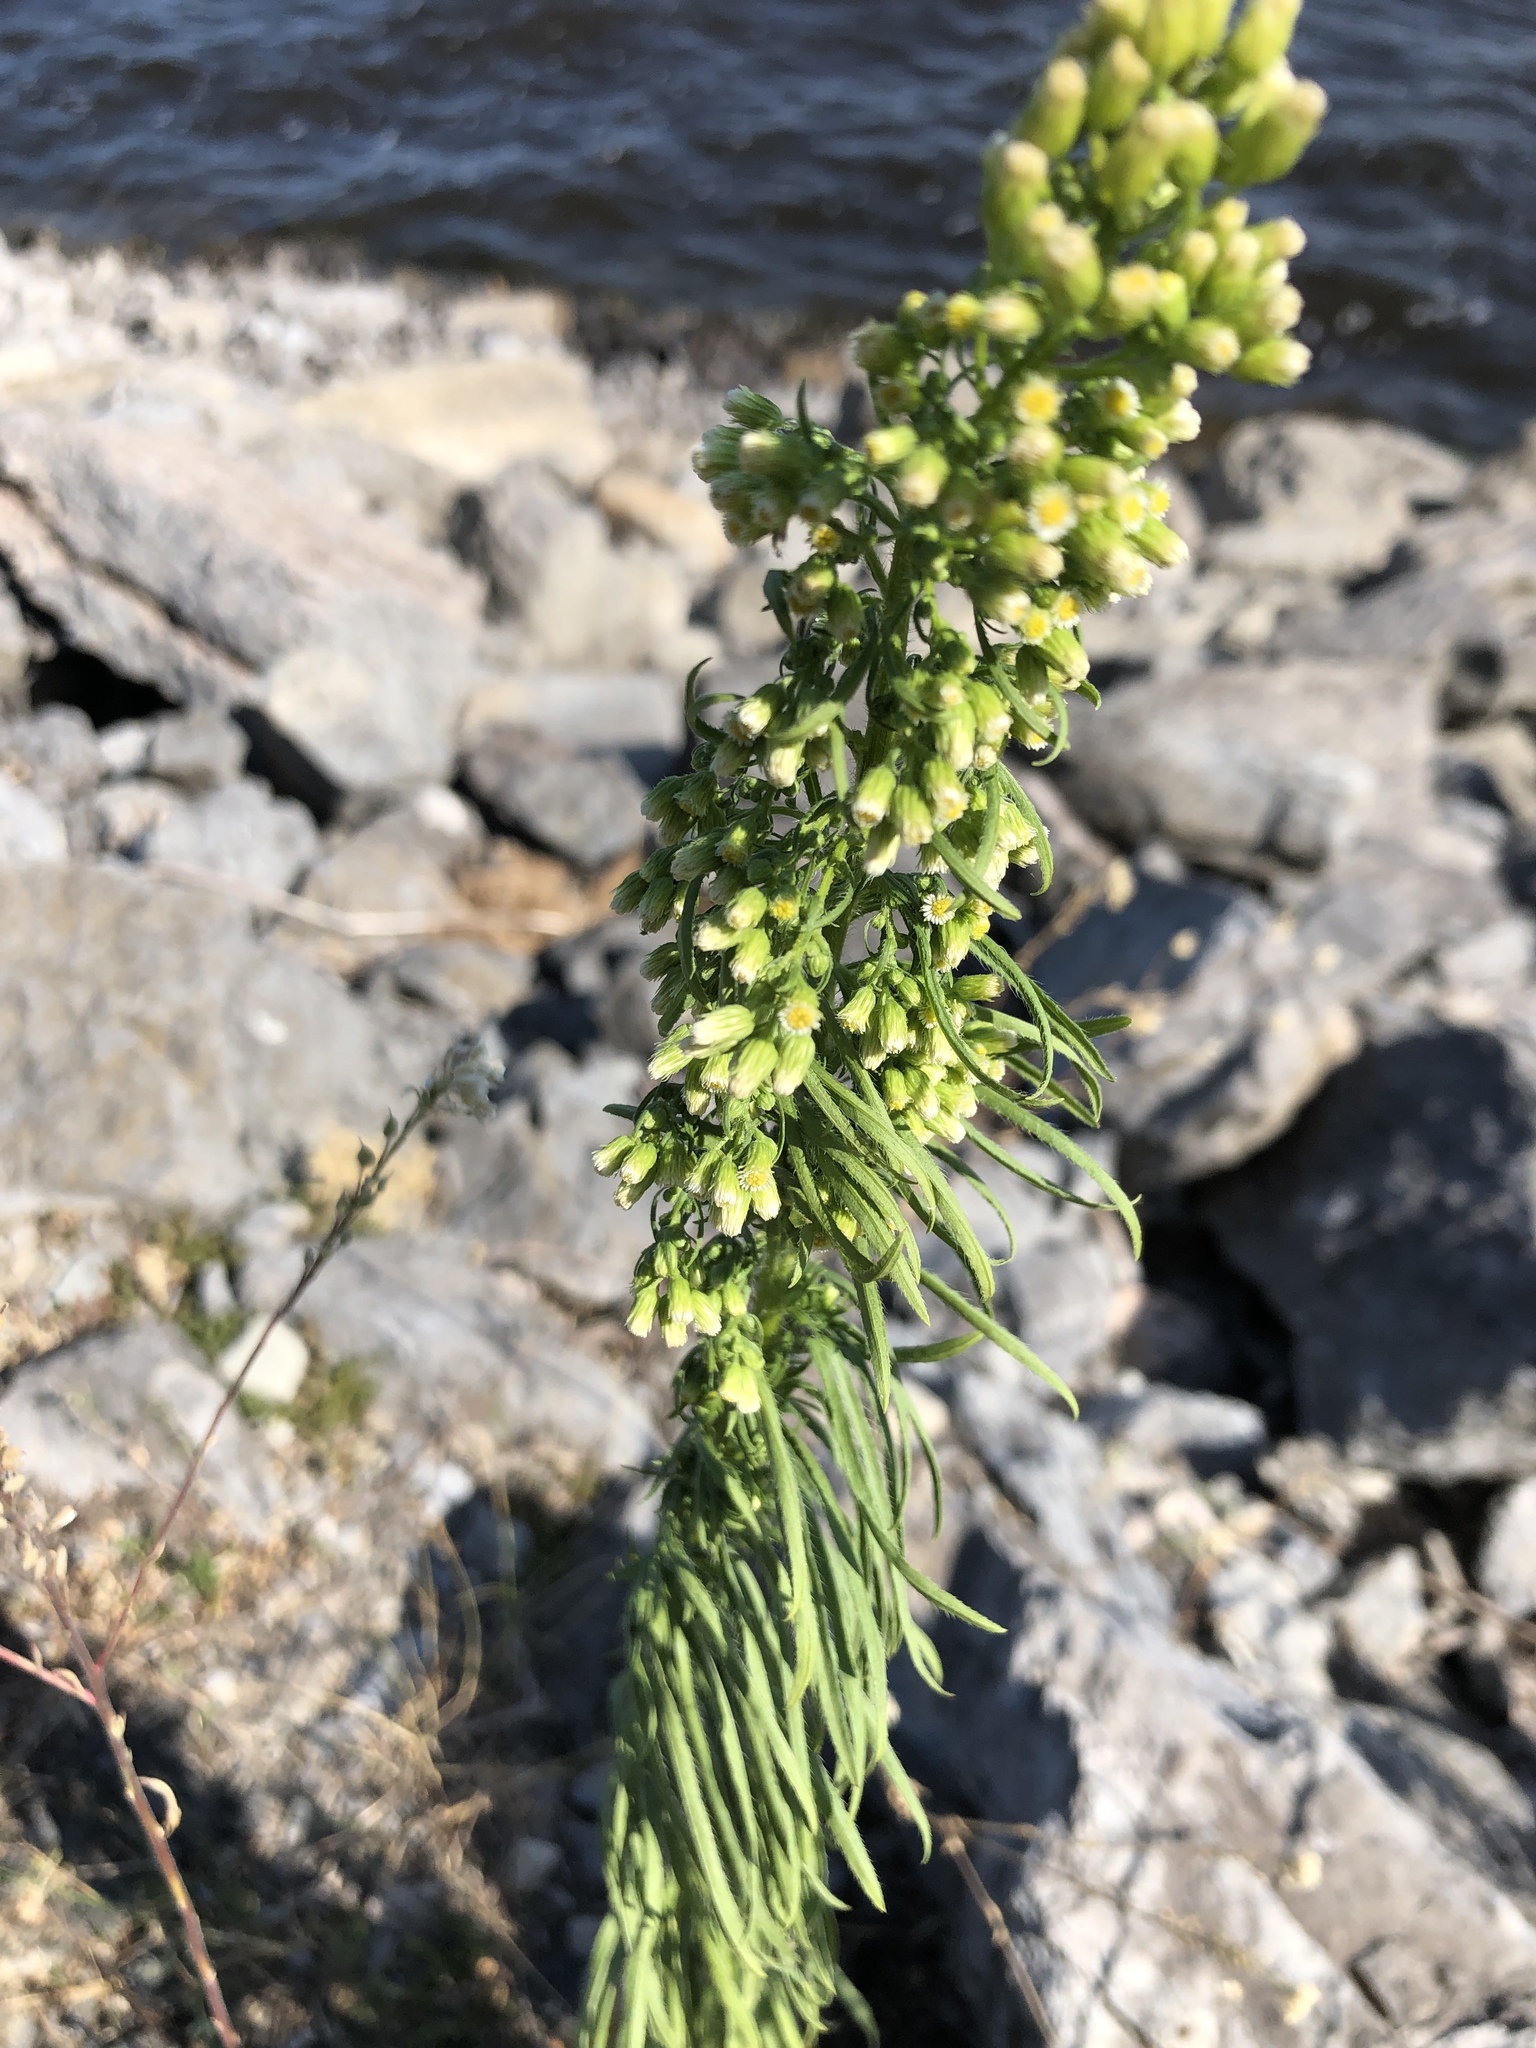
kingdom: Plantae
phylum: Tracheophyta
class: Magnoliopsida
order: Asterales
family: Asteraceae
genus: Erigeron
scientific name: Erigeron canadensis
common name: Canadian fleabane
